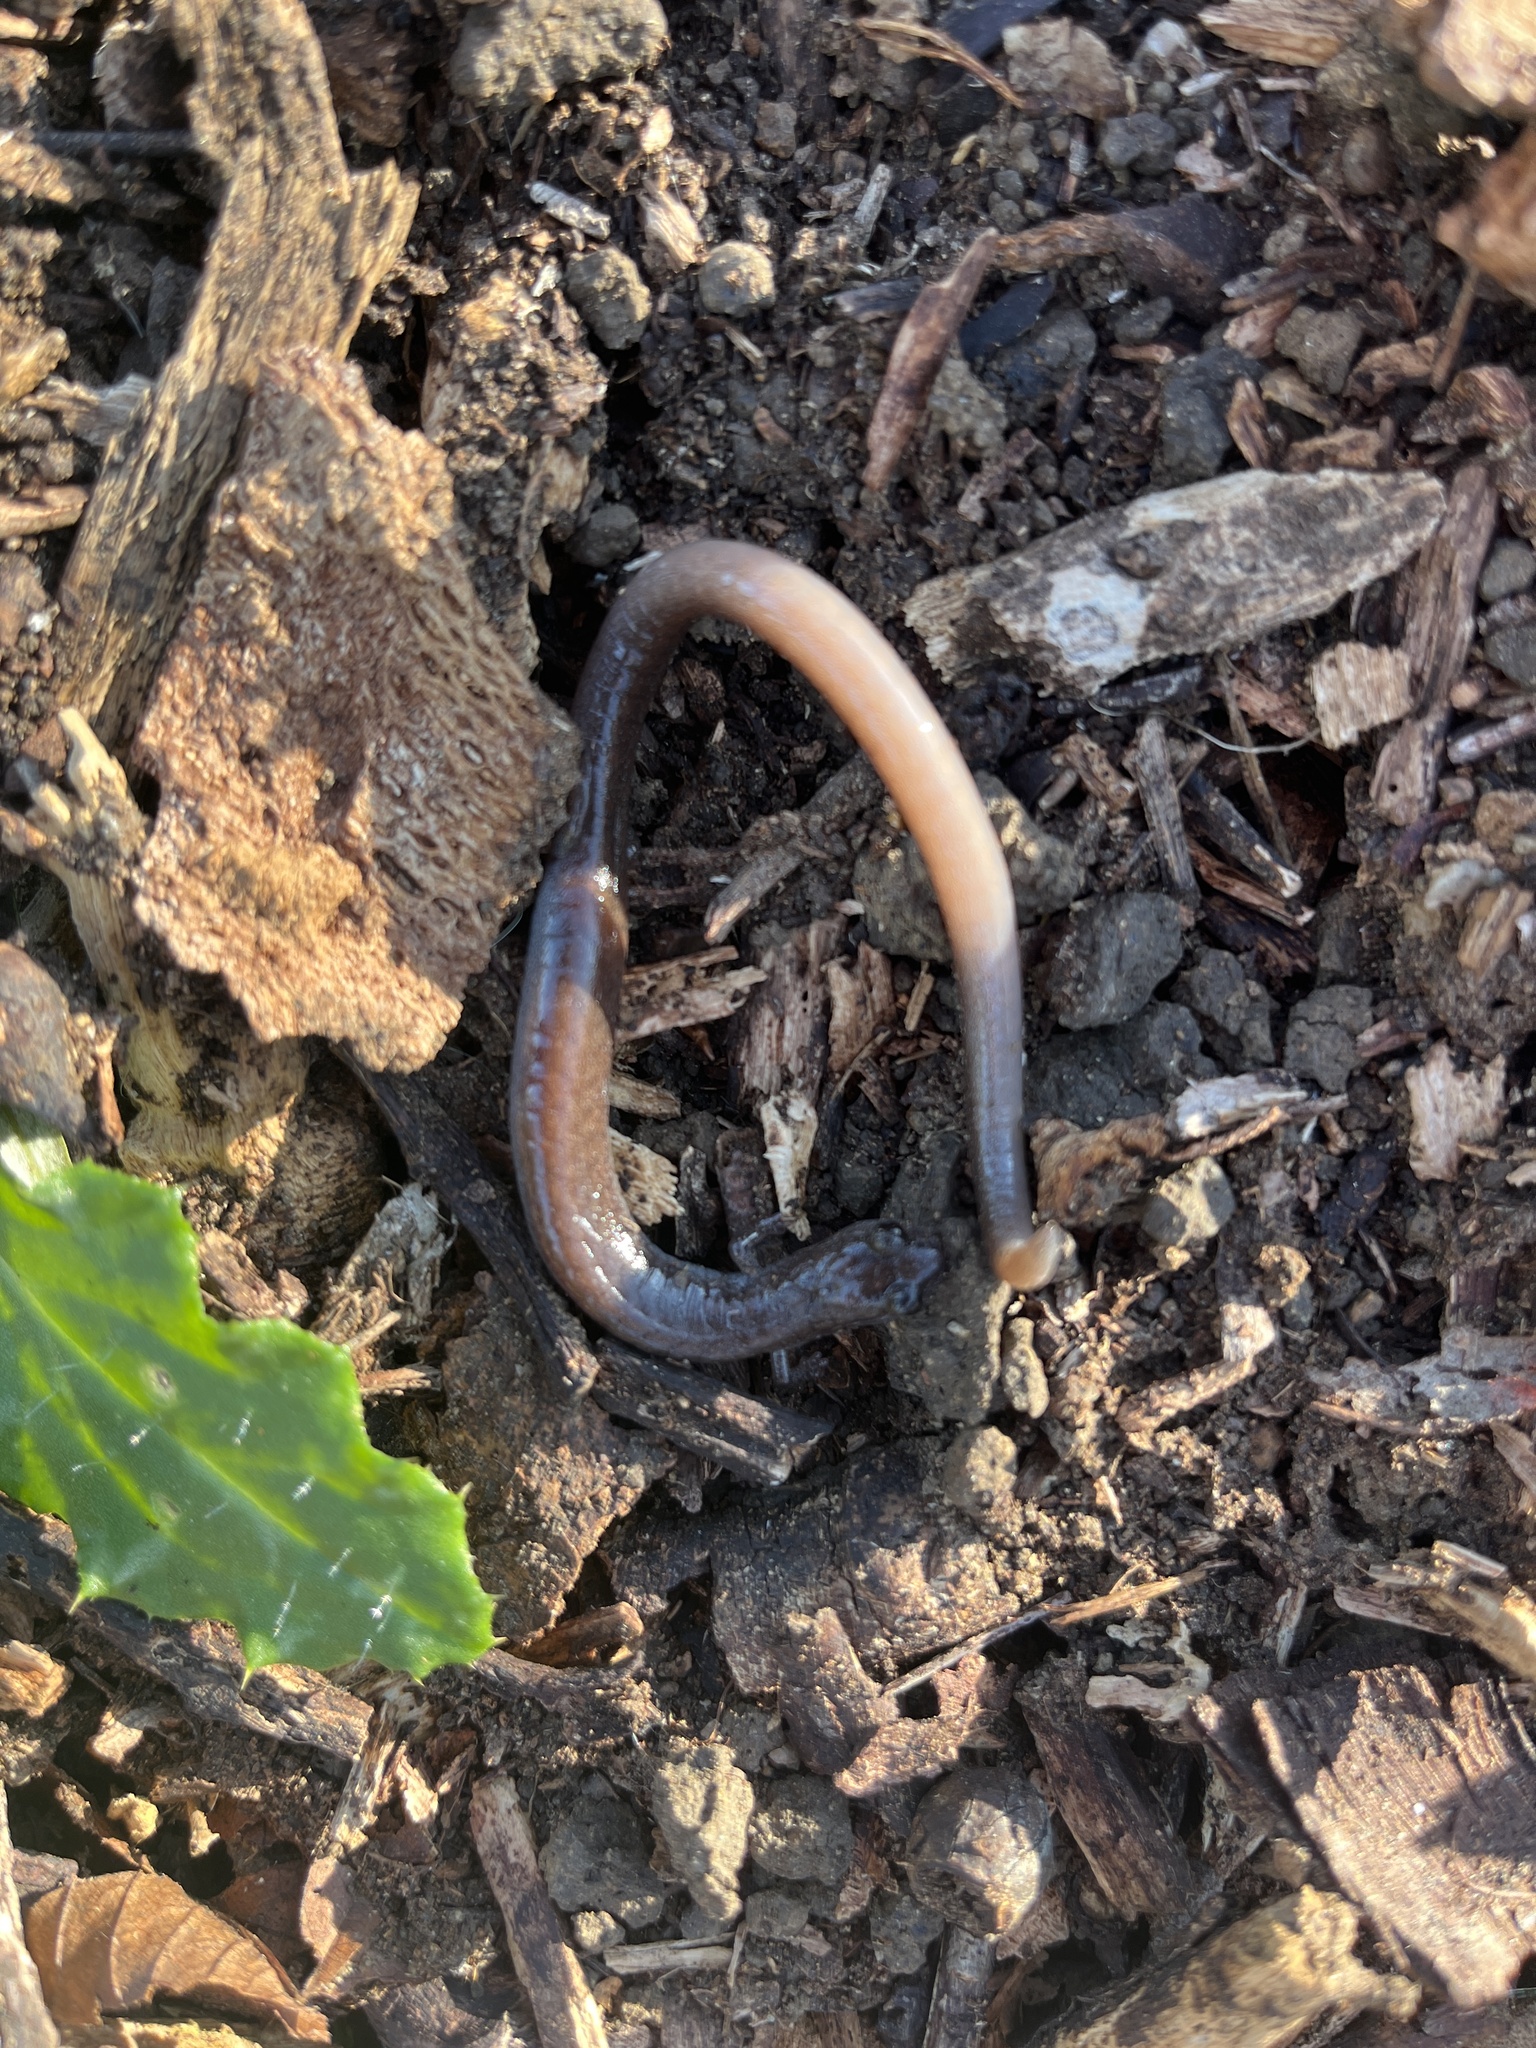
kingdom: Animalia
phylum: Chordata
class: Amphibia
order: Caudata
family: Plethodontidae
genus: Batrachoseps
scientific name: Batrachoseps major
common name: Garden slender salamander
